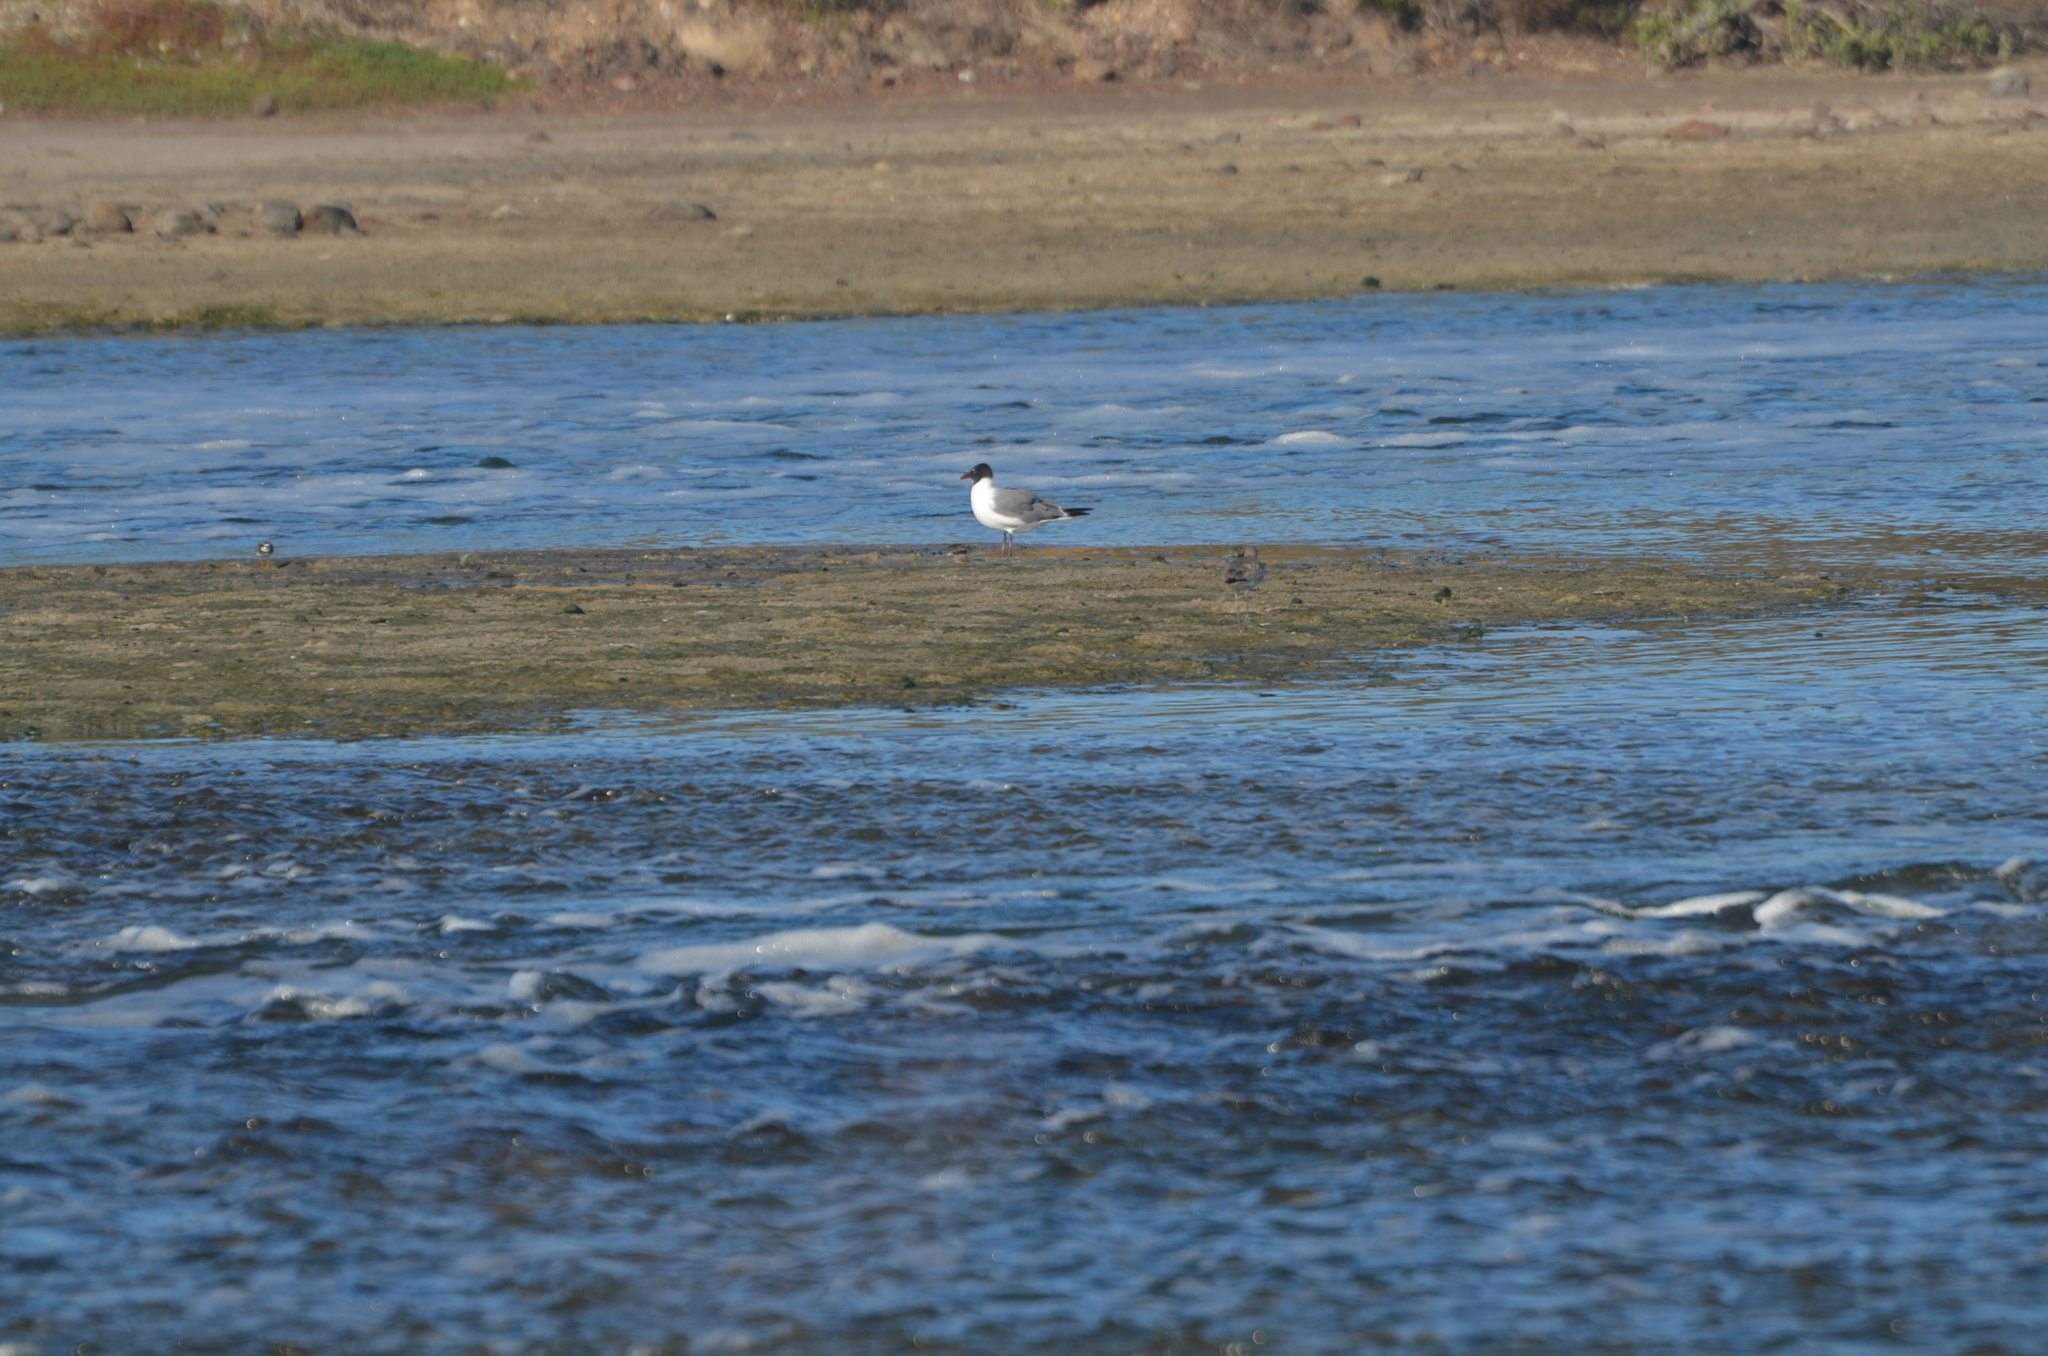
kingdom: Animalia
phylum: Chordata
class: Aves
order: Charadriiformes
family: Laridae
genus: Leucophaeus
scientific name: Leucophaeus atricilla
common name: Laughing gull
